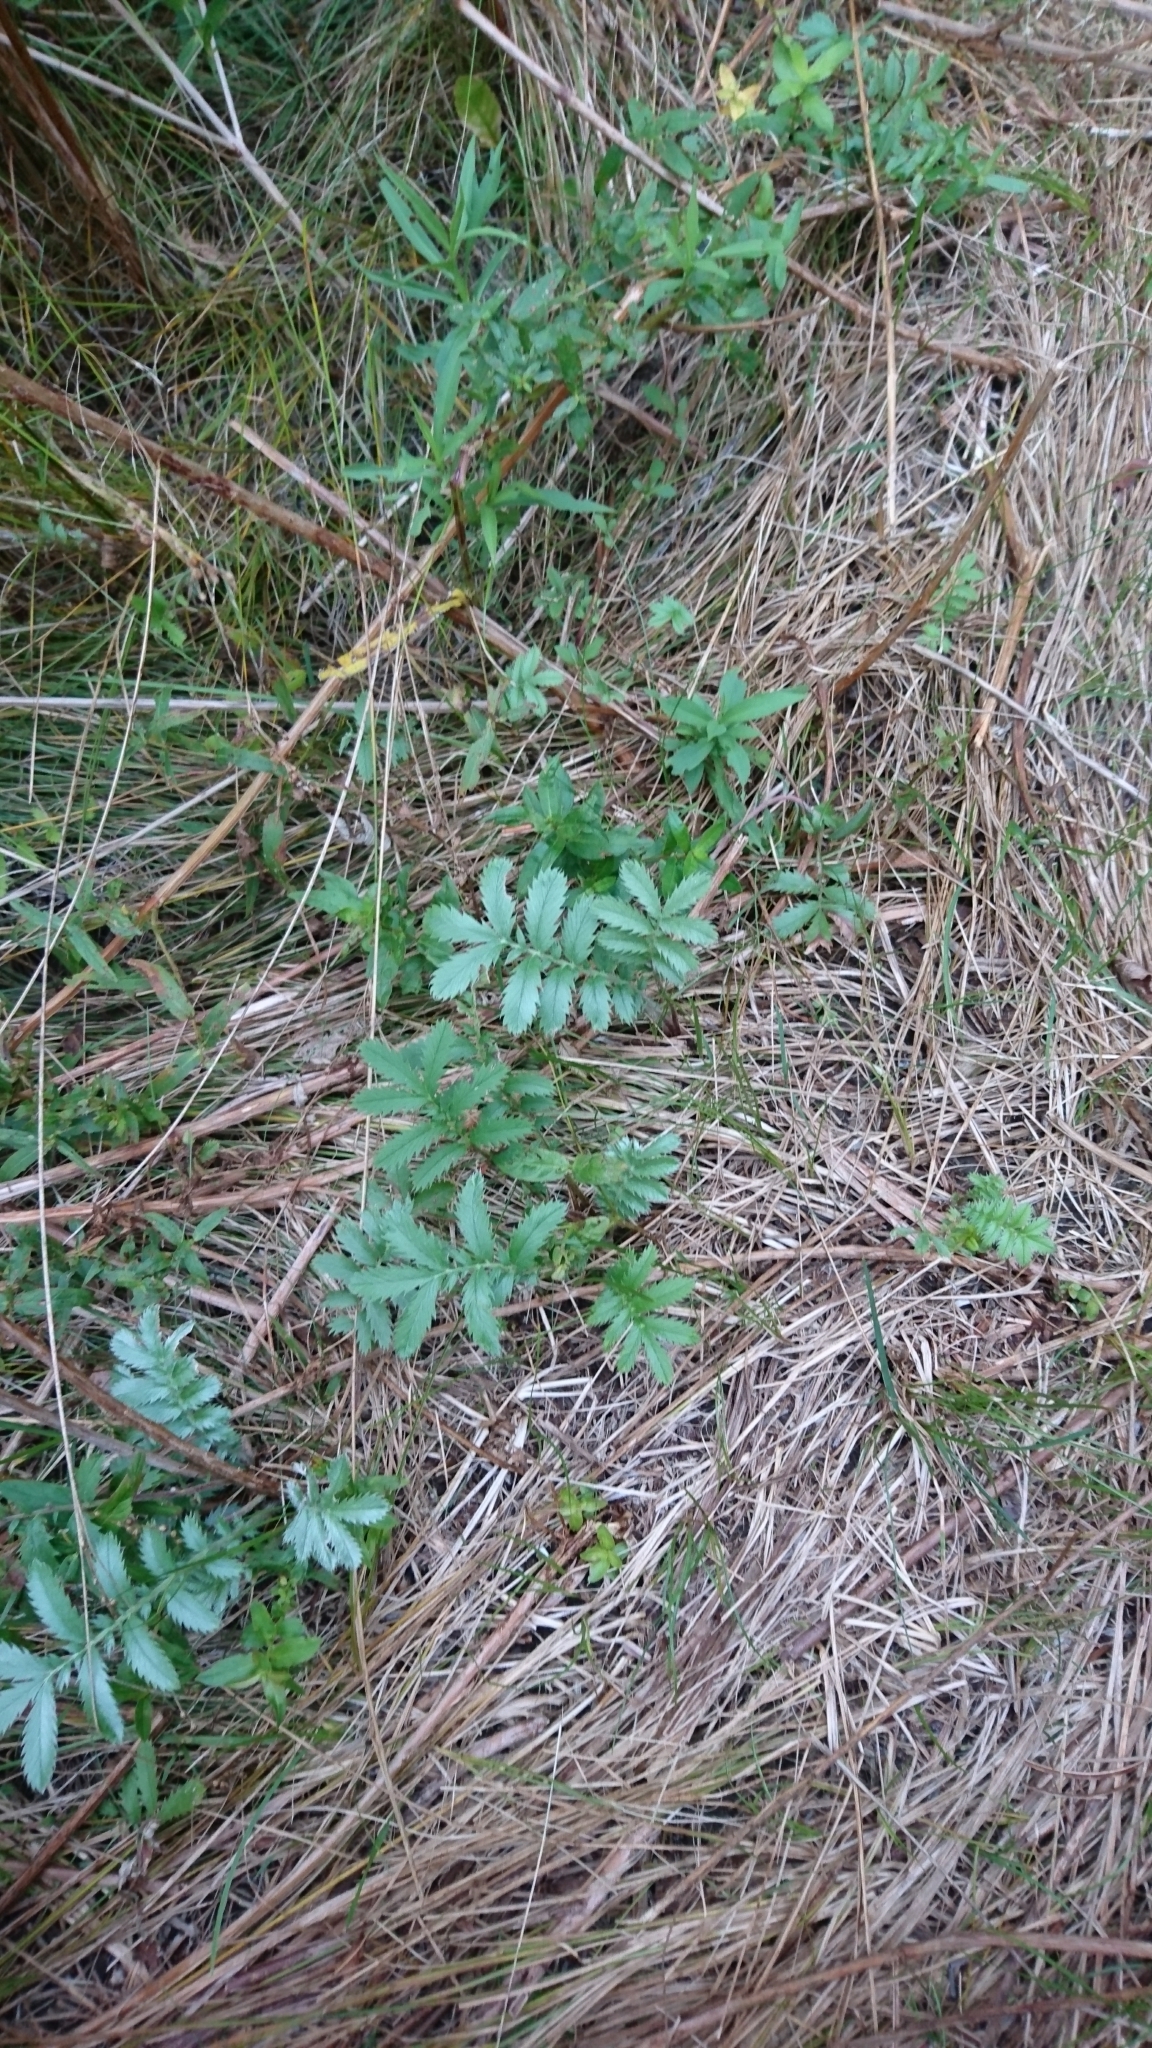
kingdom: Plantae
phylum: Tracheophyta
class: Magnoliopsida
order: Rosales
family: Rosaceae
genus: Argentina
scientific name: Argentina anserina
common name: Common silverweed
